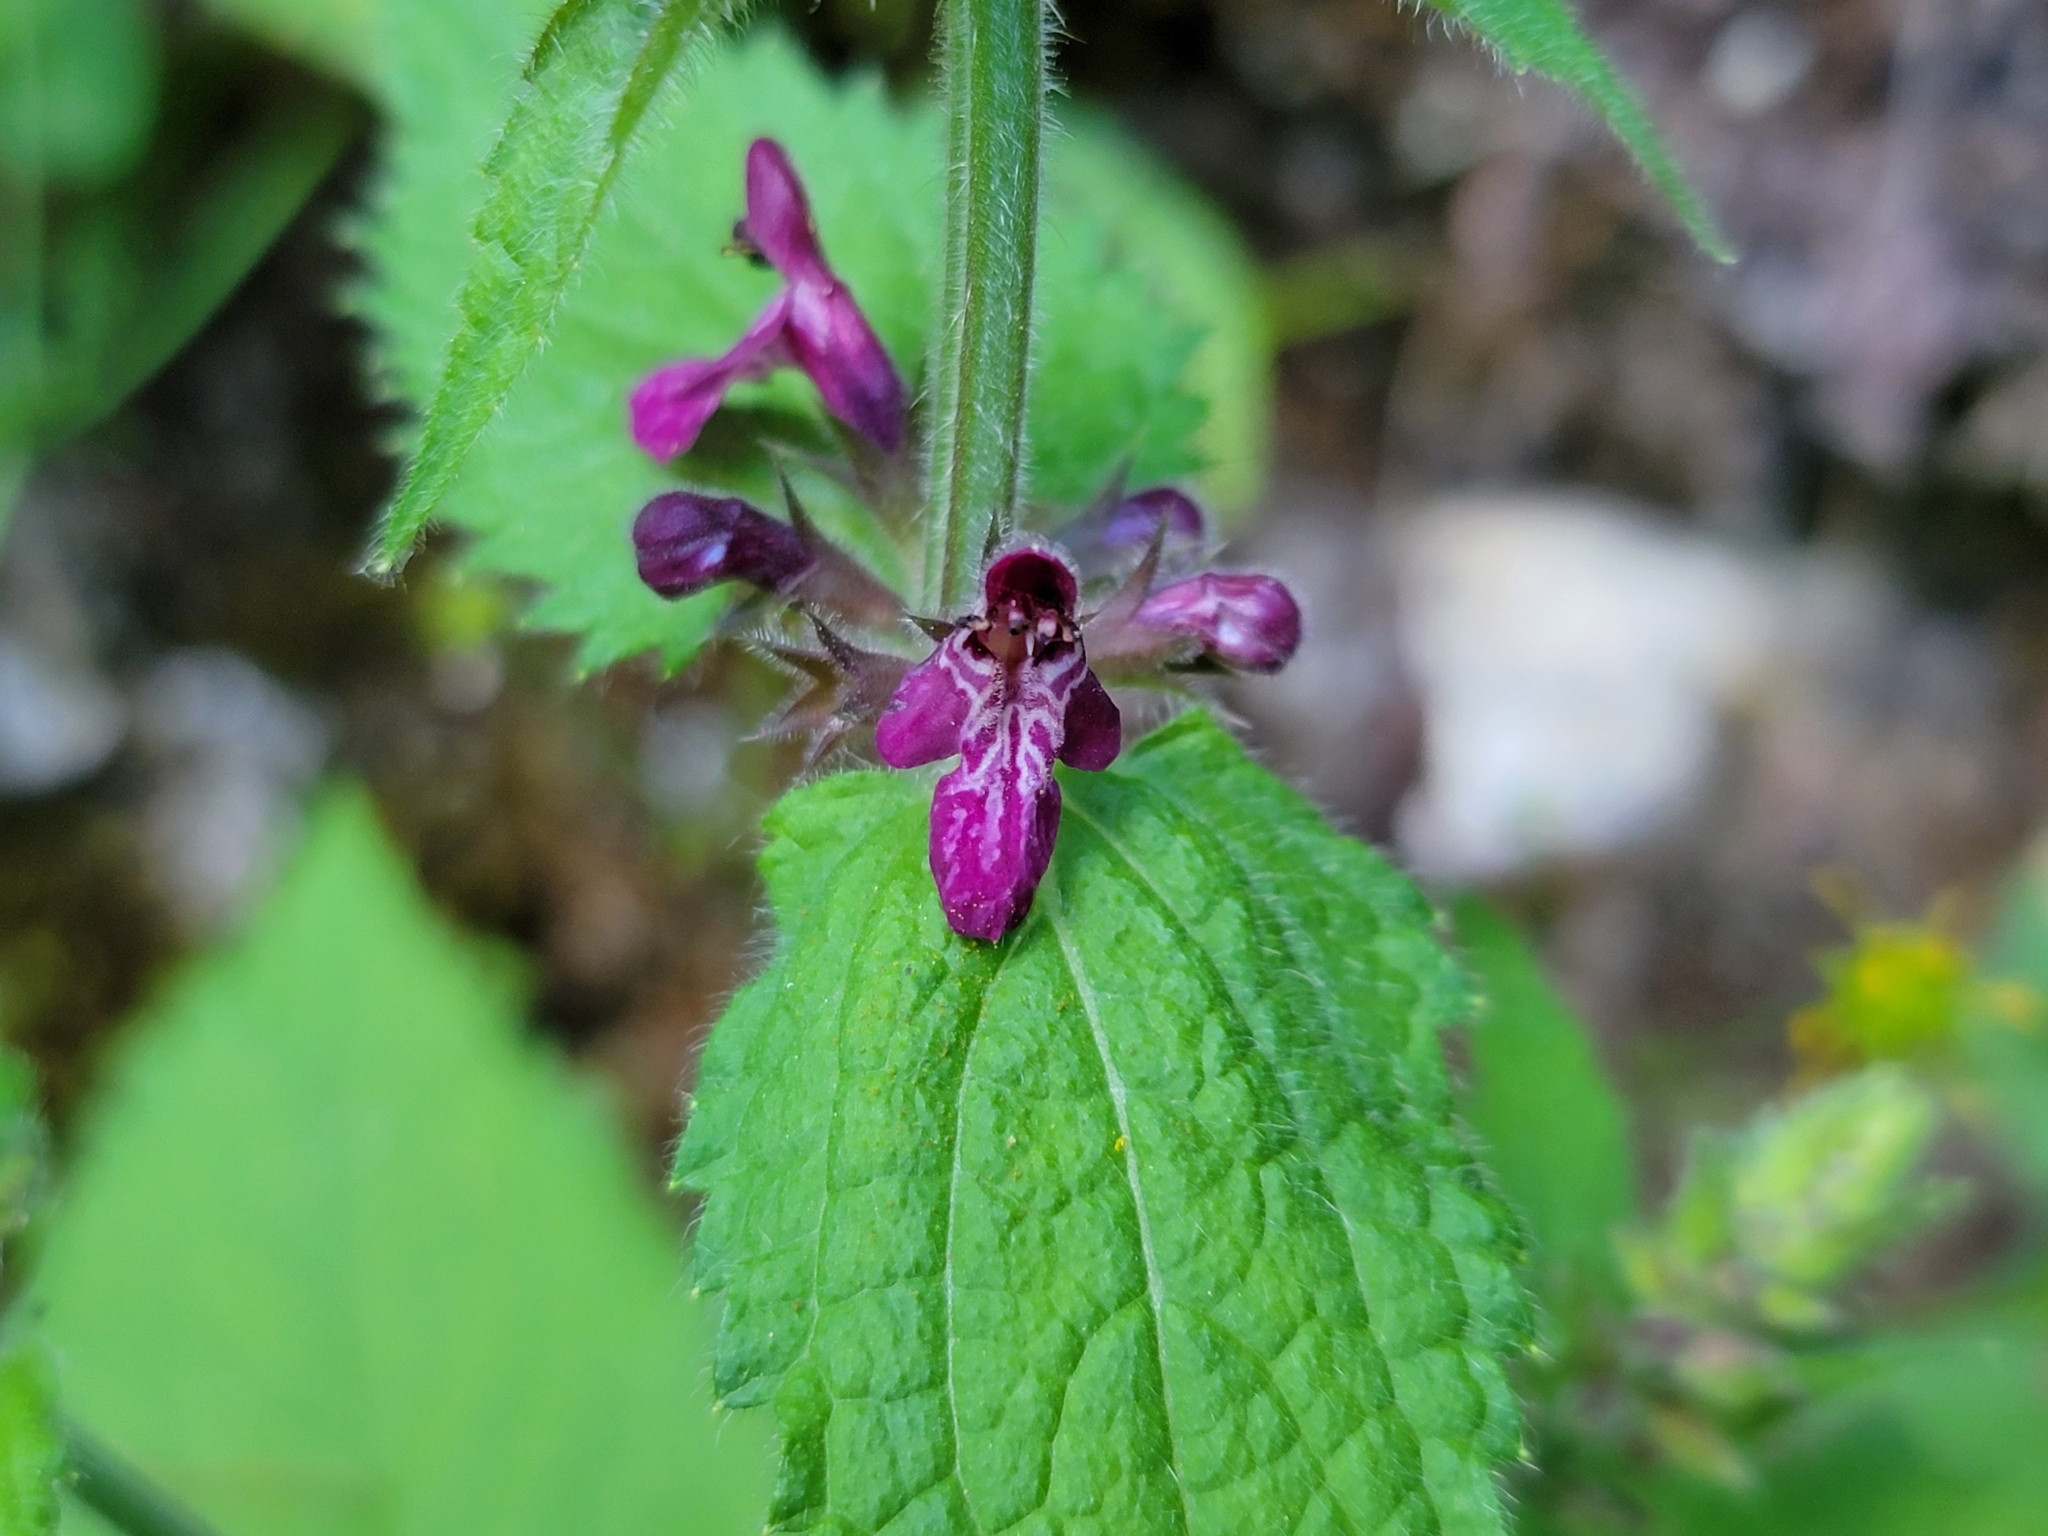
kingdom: Plantae
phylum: Tracheophyta
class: Magnoliopsida
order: Lamiales
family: Lamiaceae
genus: Stachys
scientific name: Stachys sylvatica
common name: Hedge woundwort
